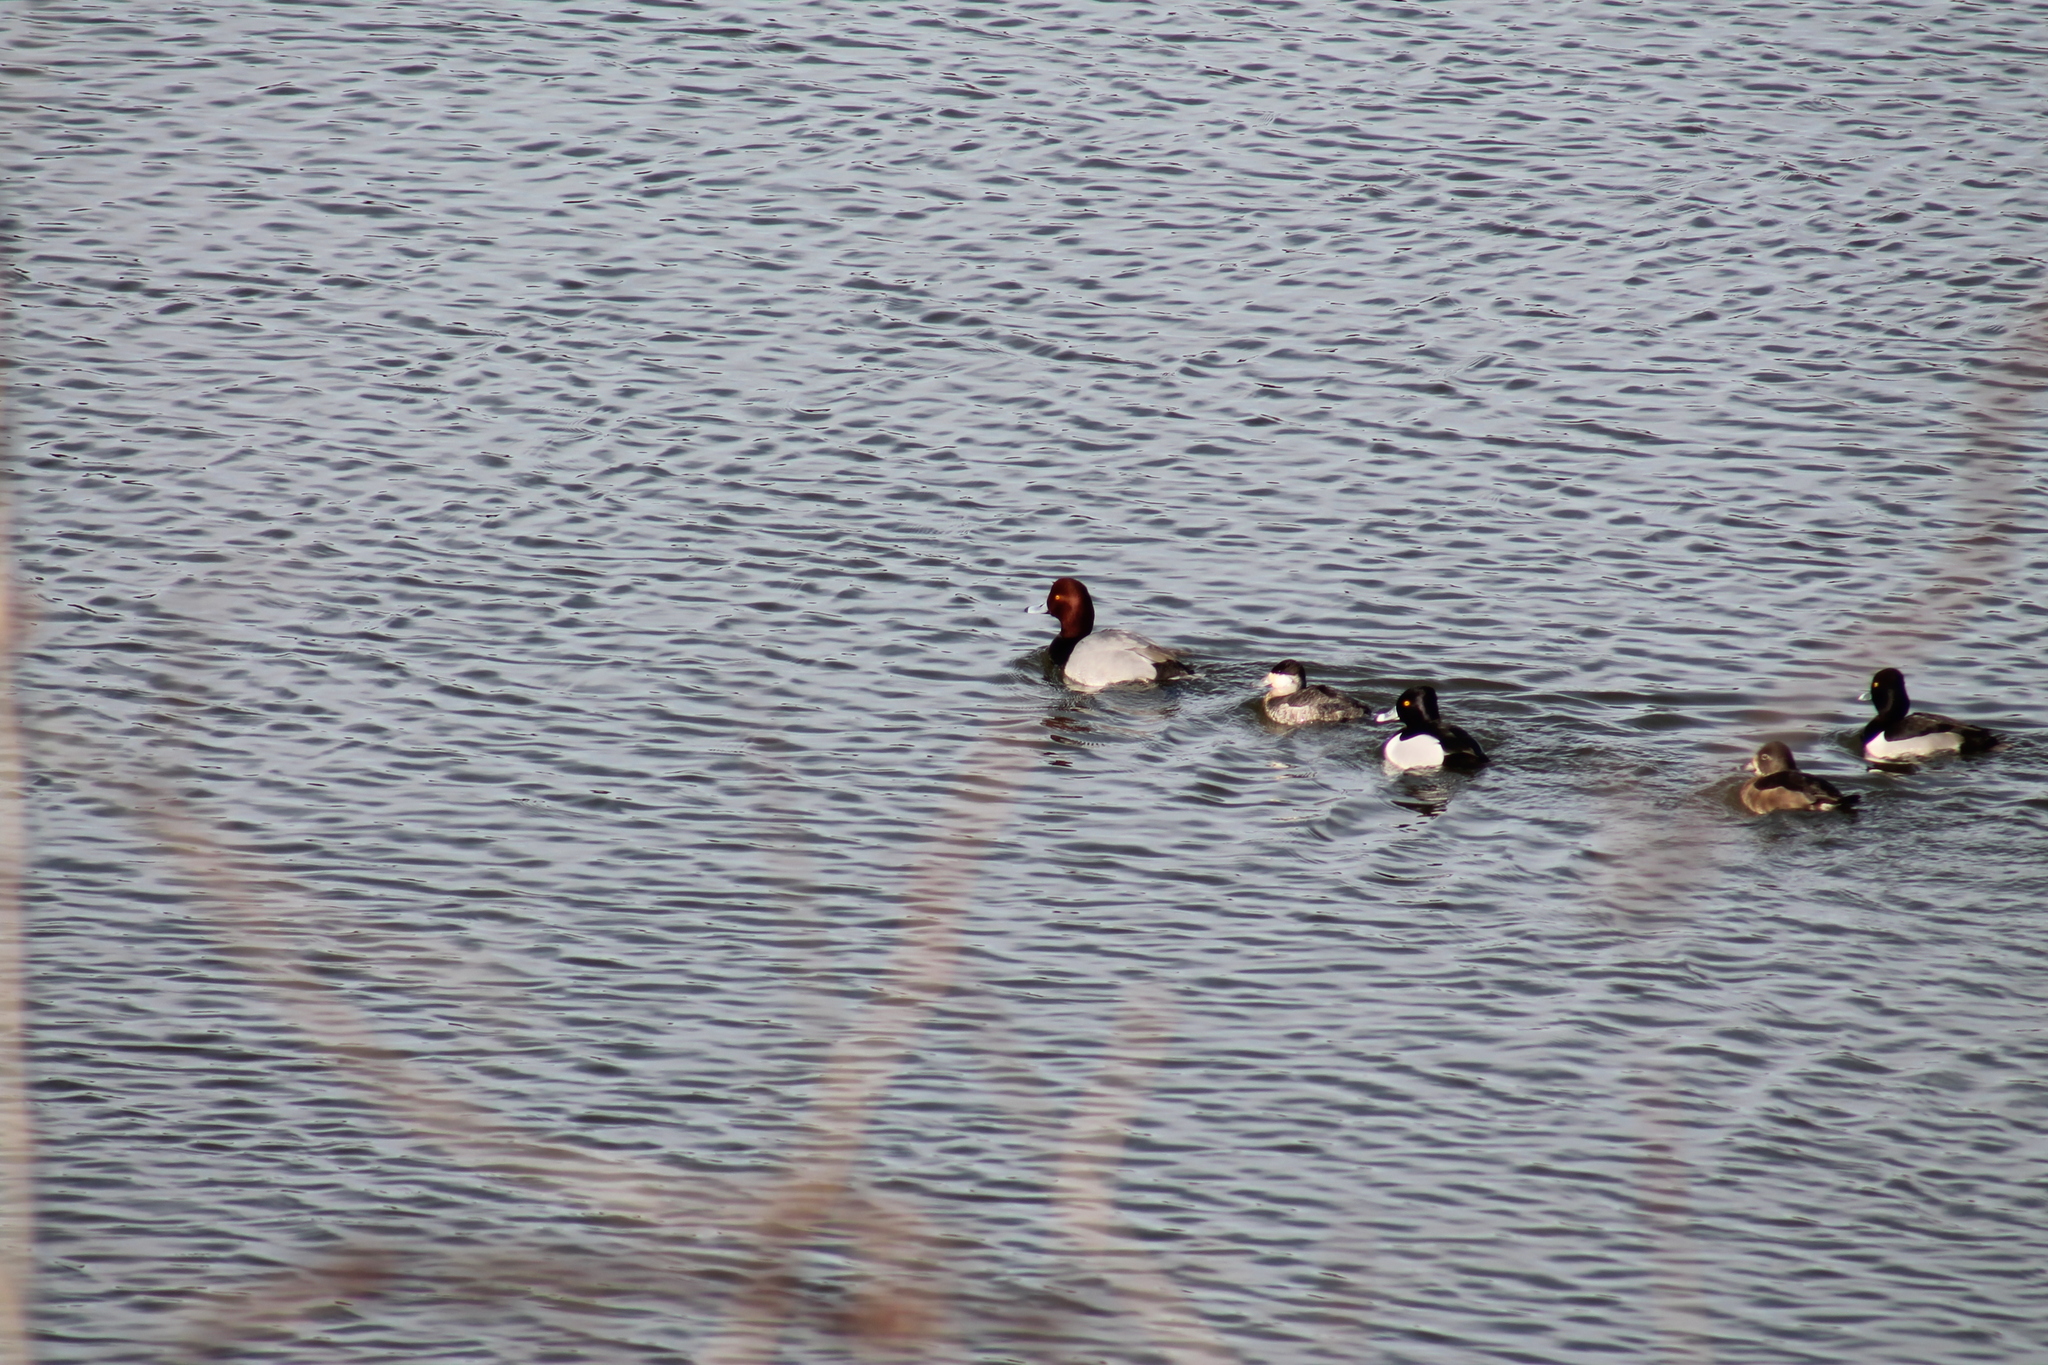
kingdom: Animalia
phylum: Chordata
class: Aves
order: Anseriformes
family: Anatidae
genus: Aythya
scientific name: Aythya americana
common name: Redhead
